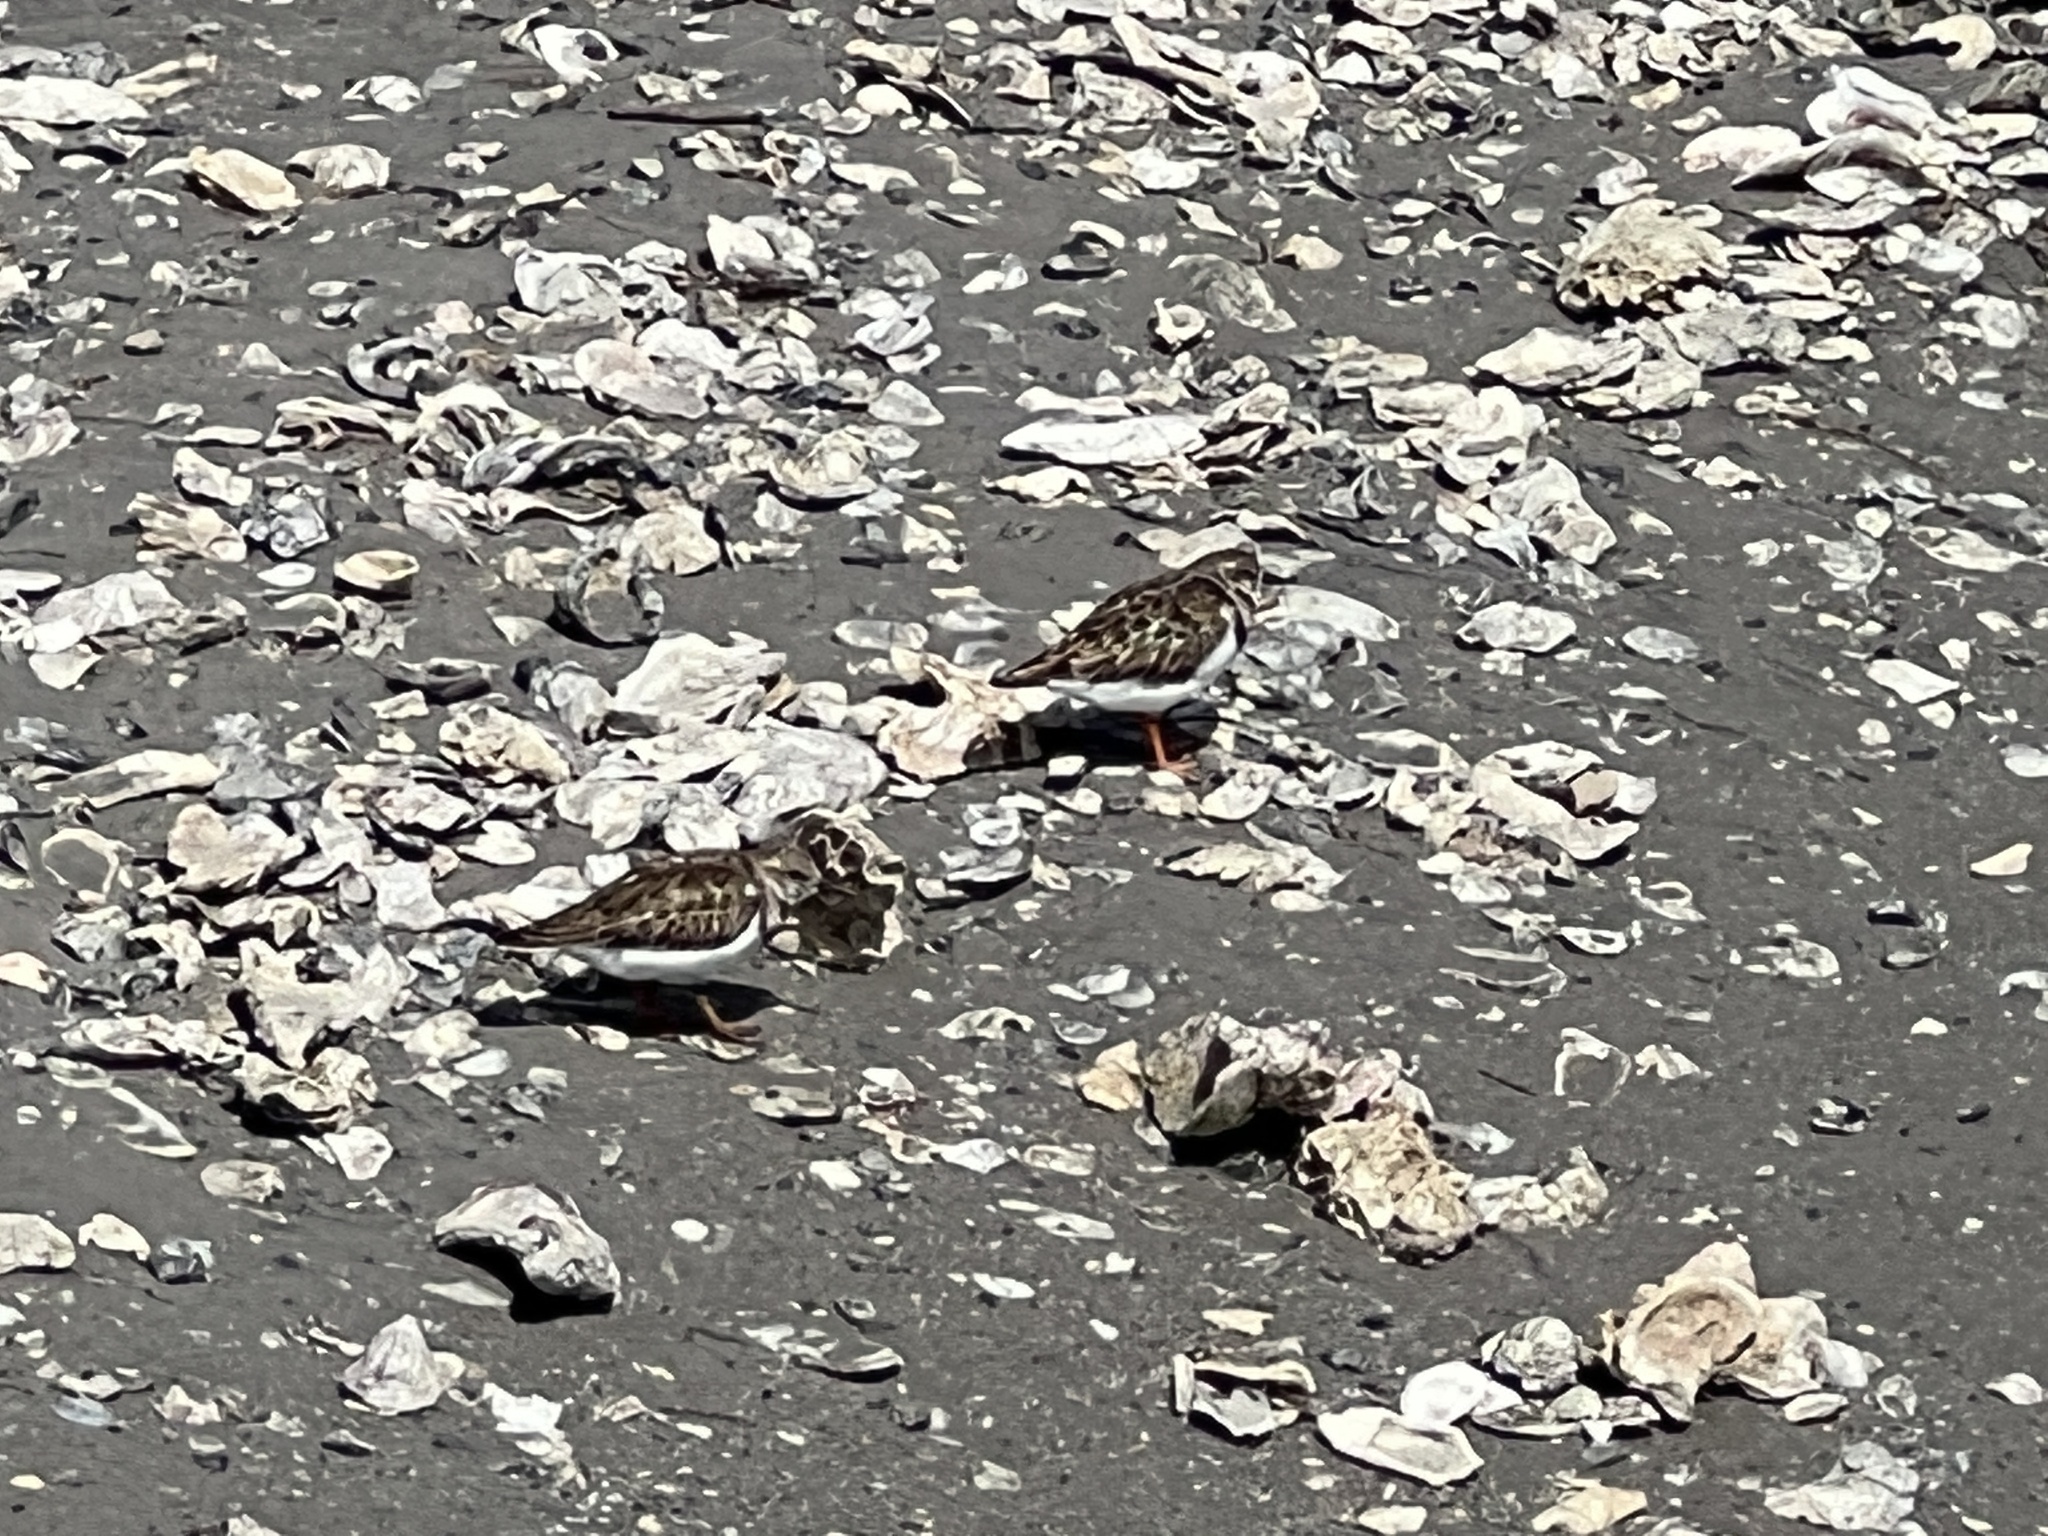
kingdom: Animalia
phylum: Chordata
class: Aves
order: Charadriiformes
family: Scolopacidae
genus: Arenaria
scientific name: Arenaria interpres
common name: Ruddy turnstone
